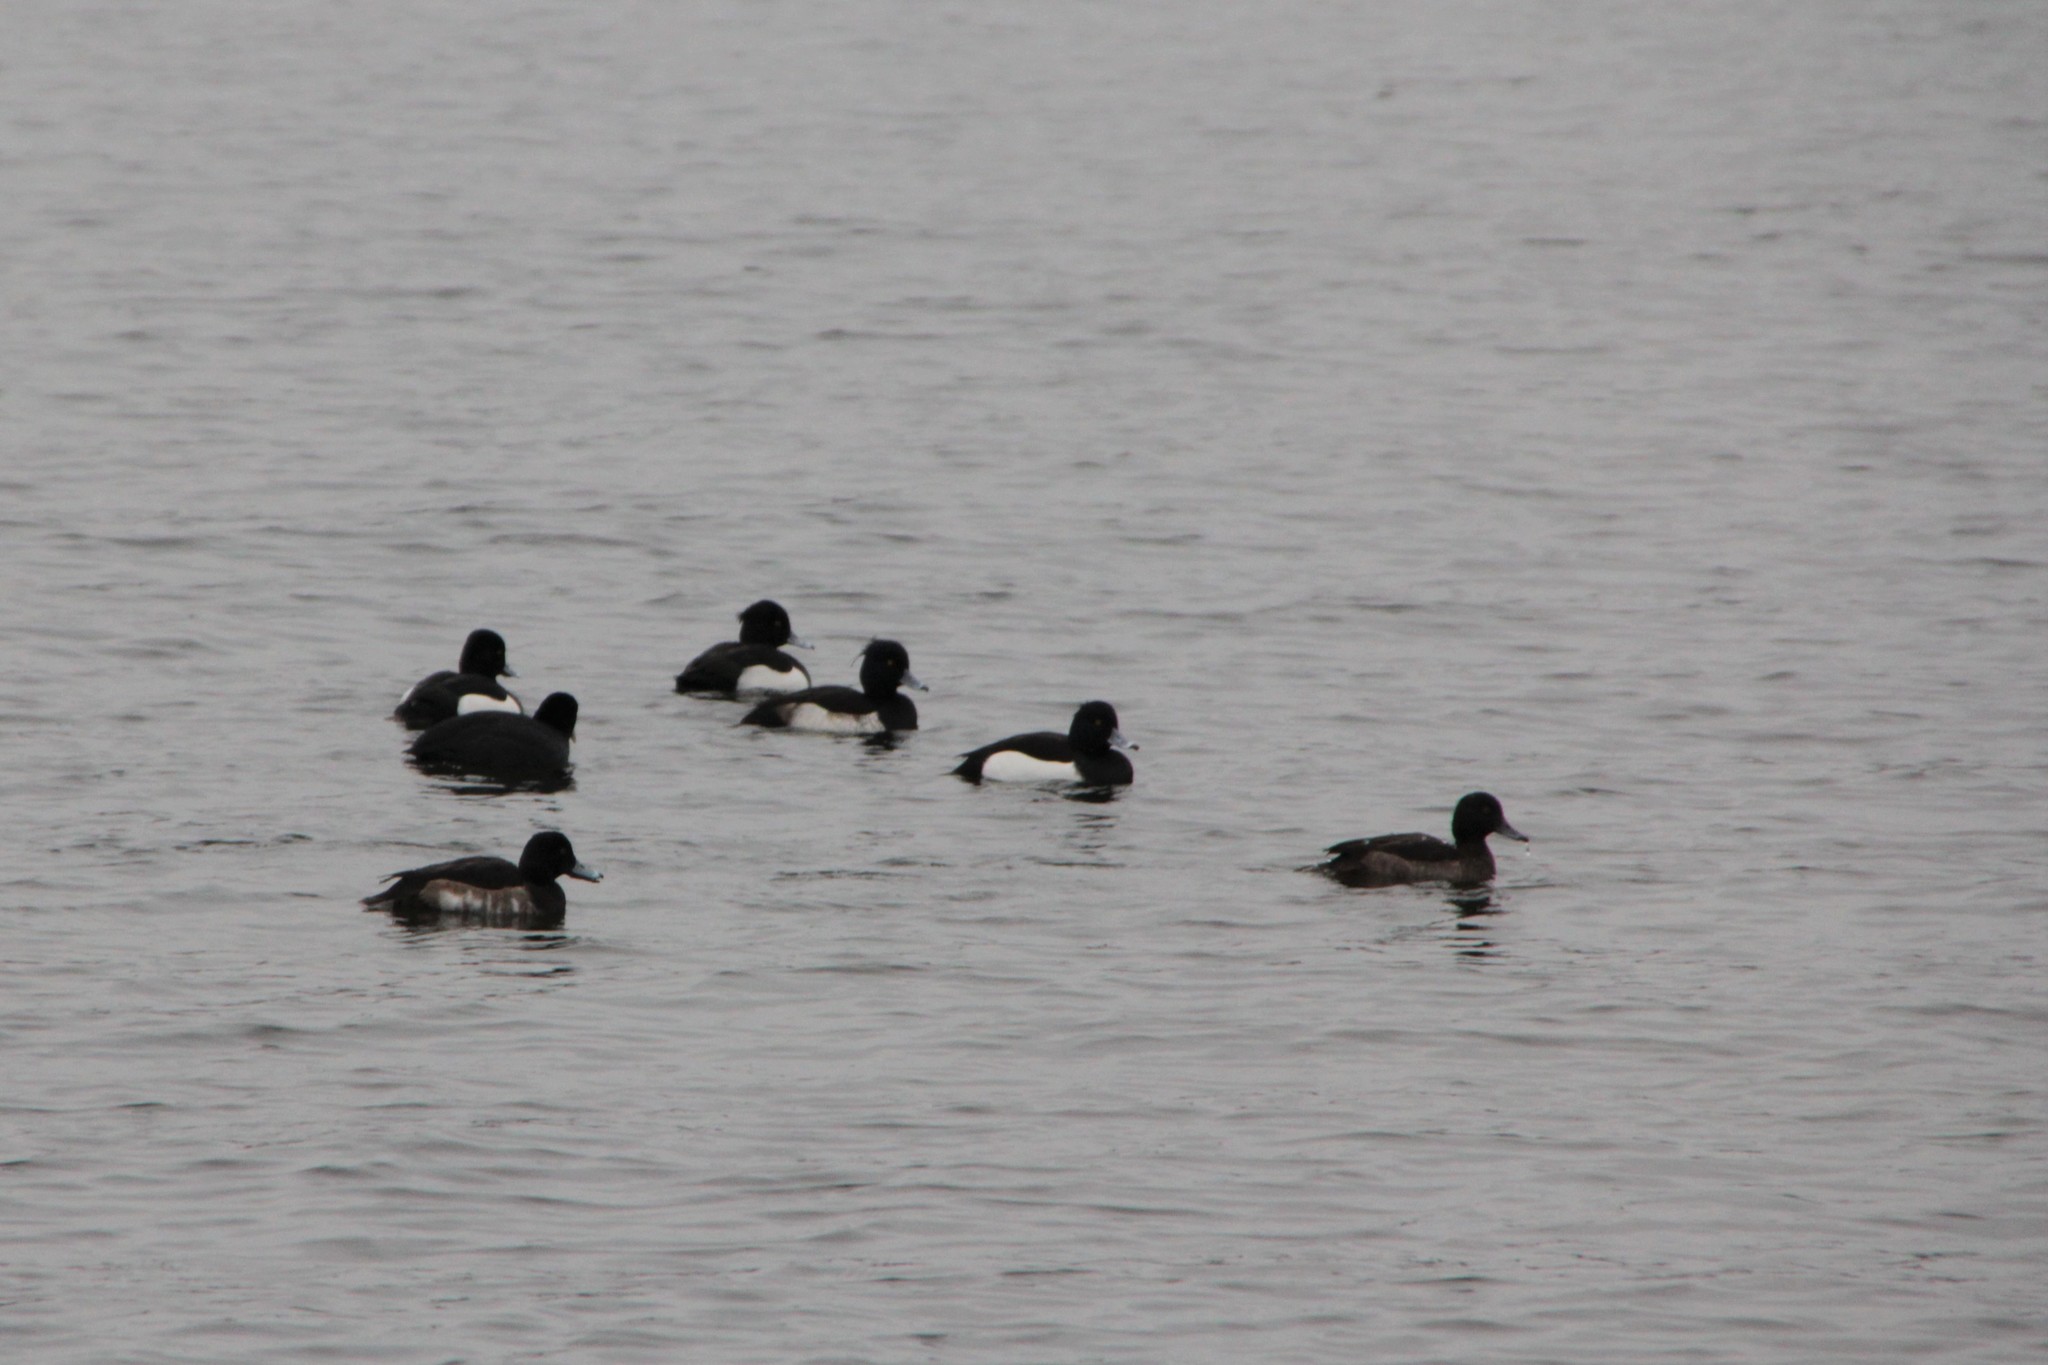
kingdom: Animalia
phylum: Chordata
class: Aves
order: Anseriformes
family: Anatidae
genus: Aythya
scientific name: Aythya fuligula
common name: Tufted duck
